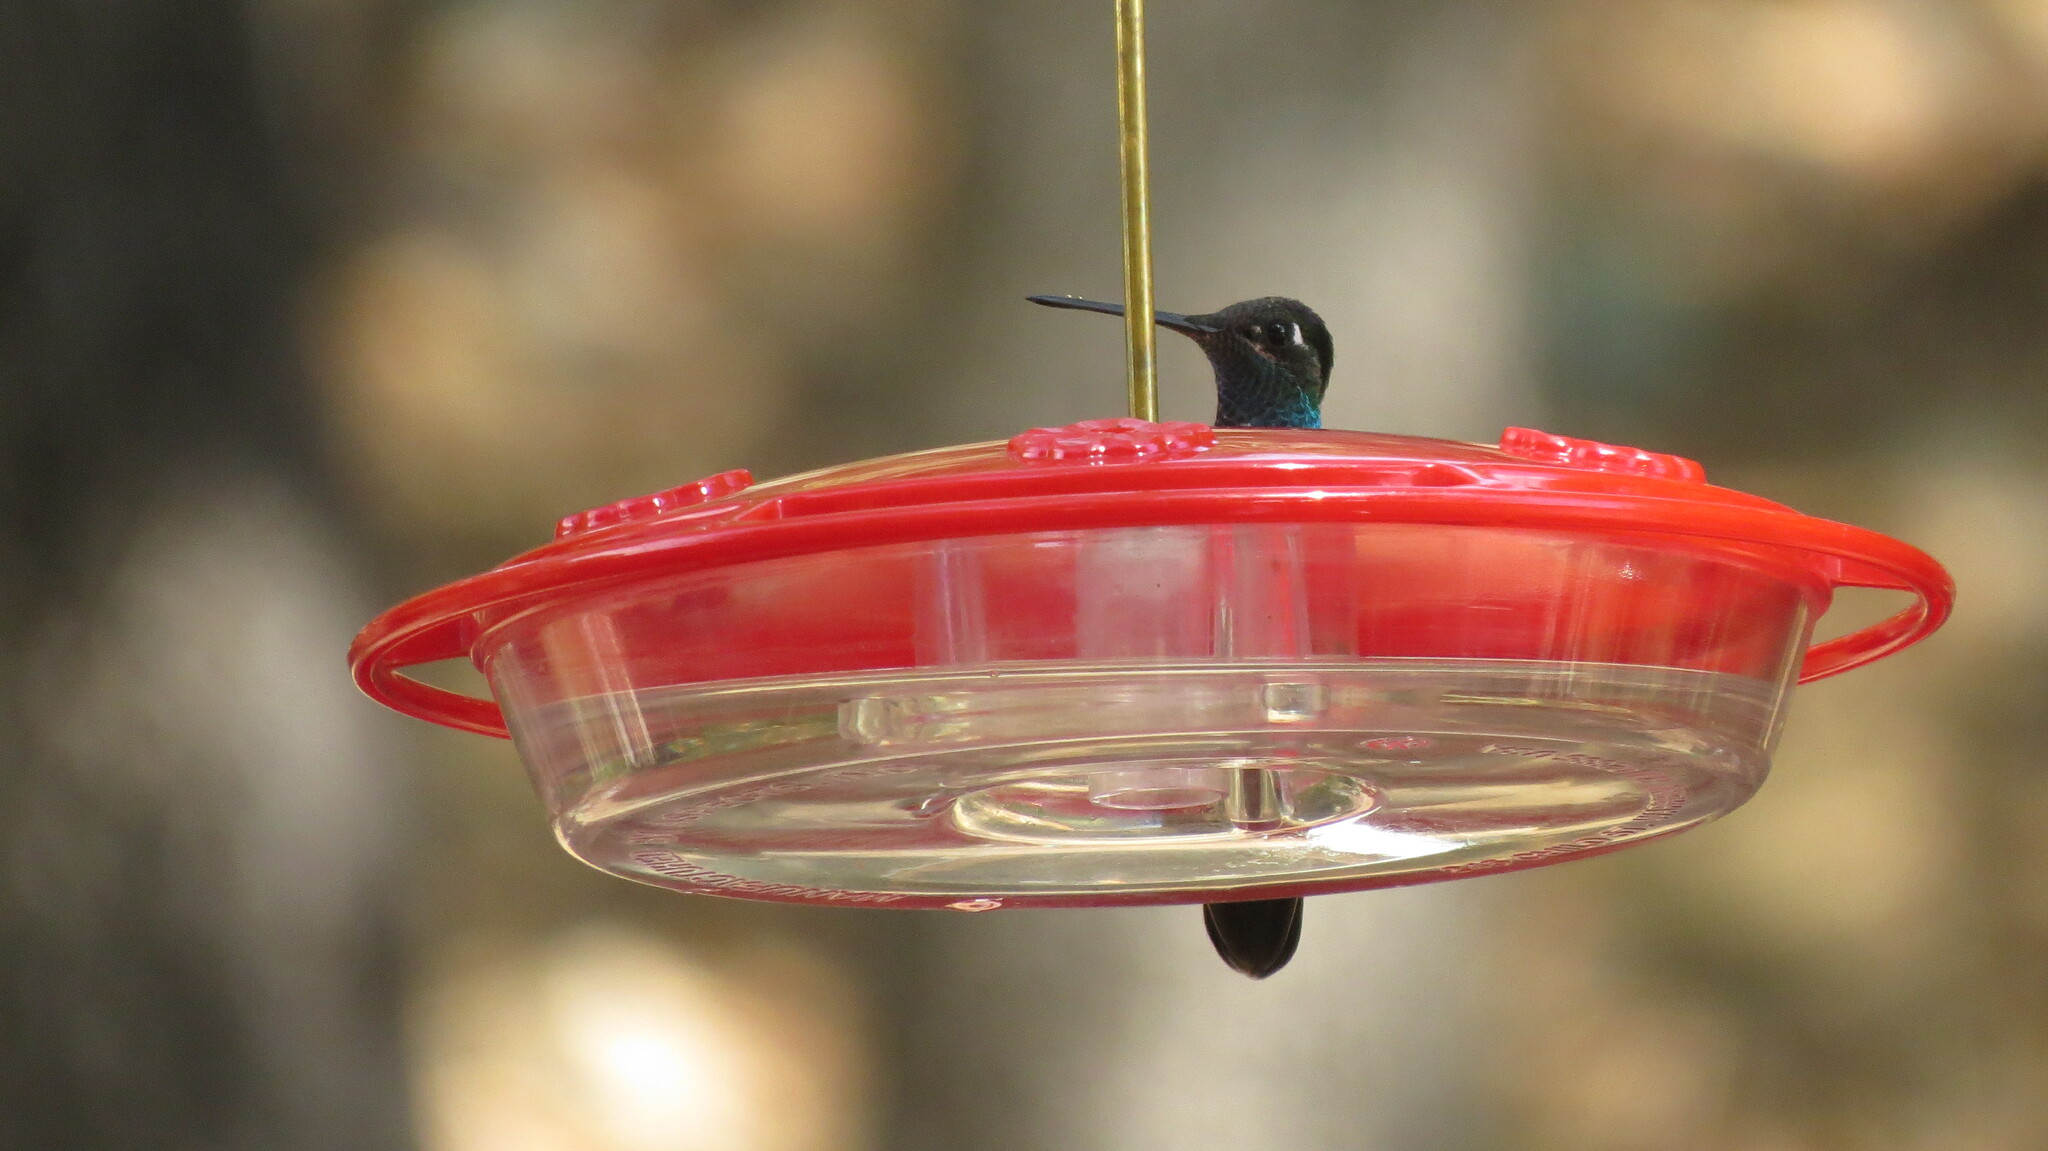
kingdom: Animalia
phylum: Chordata
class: Aves
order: Apodiformes
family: Trochilidae
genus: Eugenes
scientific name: Eugenes fulgens
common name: Magnificent hummingbird
